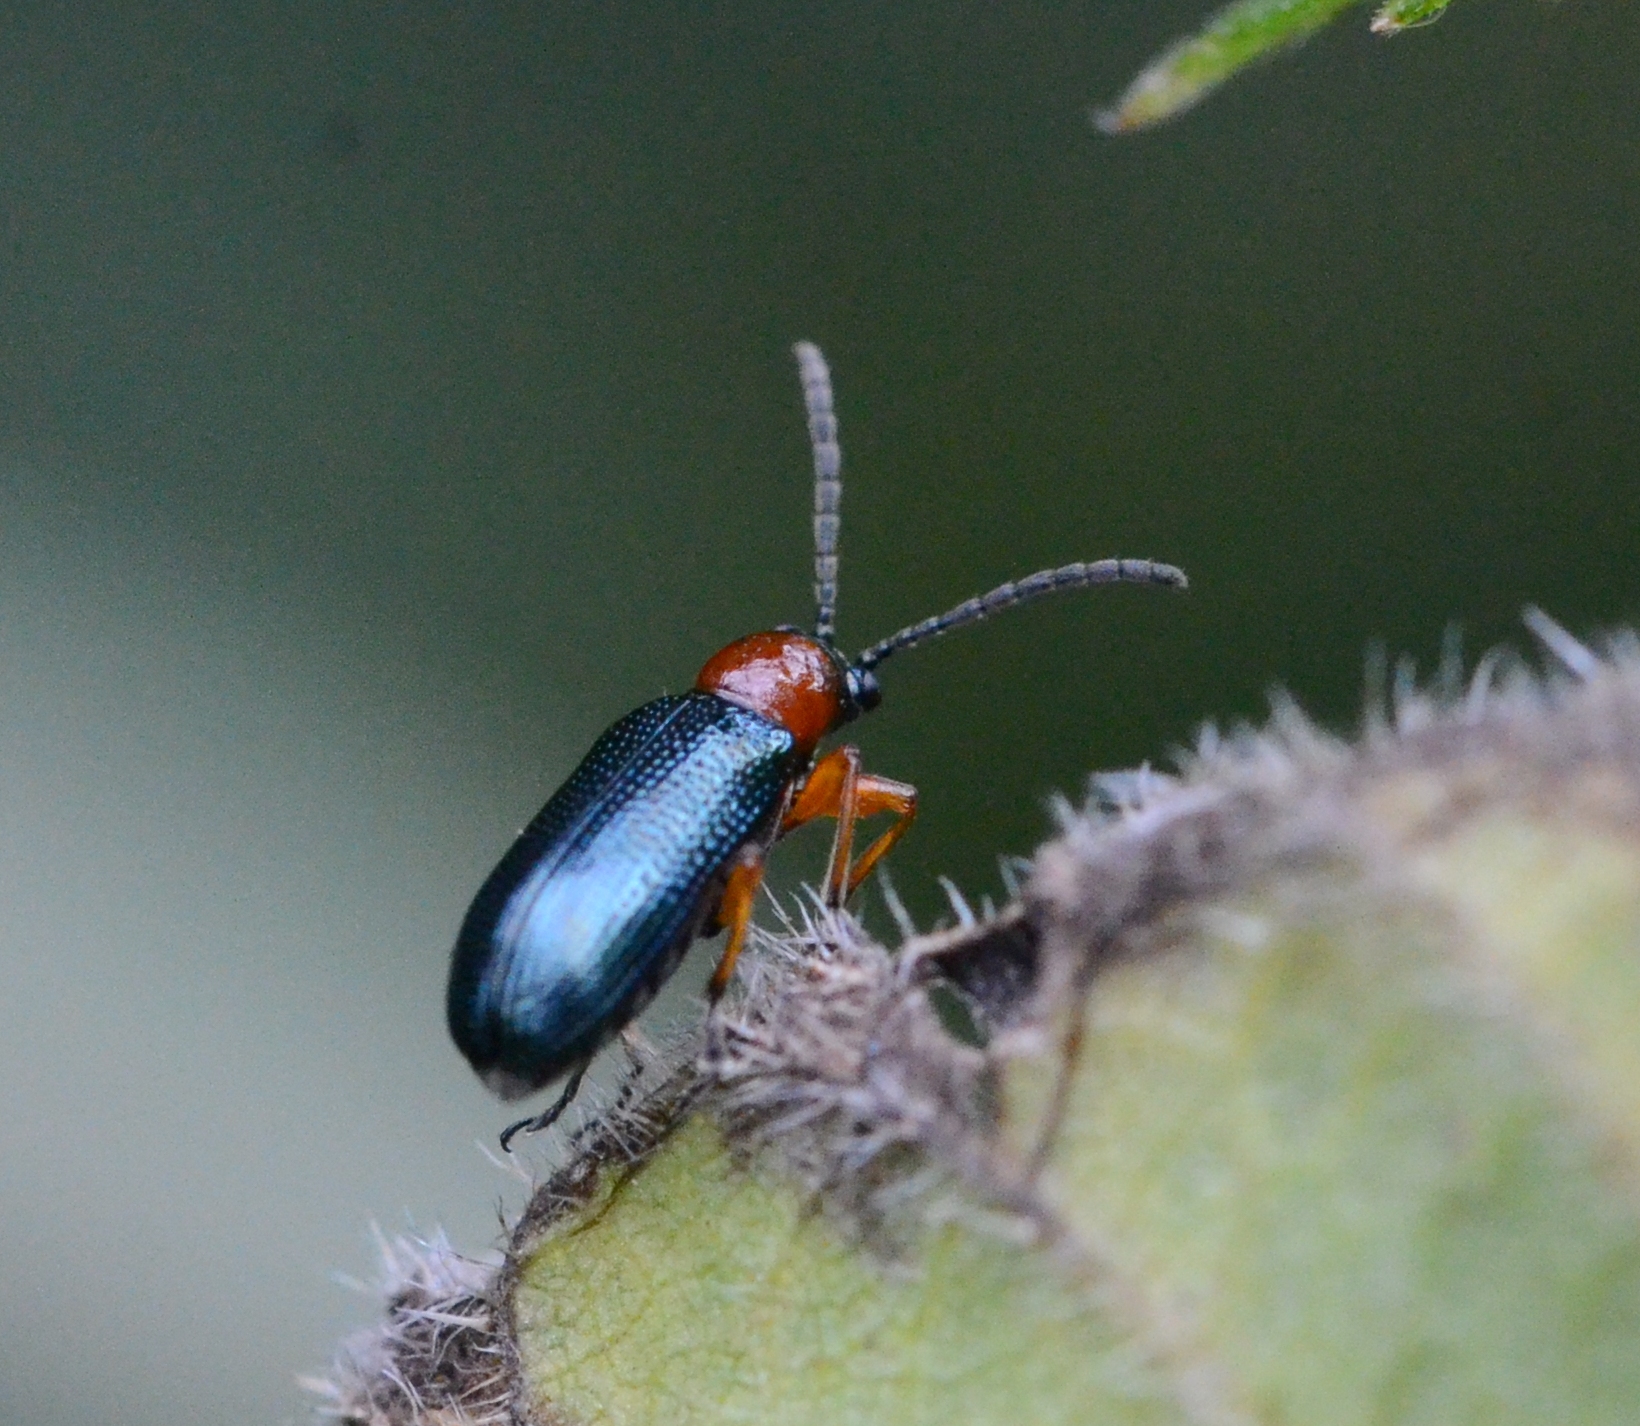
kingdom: Animalia
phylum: Arthropoda
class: Insecta
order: Coleoptera
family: Chrysomelidae
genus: Oulema
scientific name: Oulema
